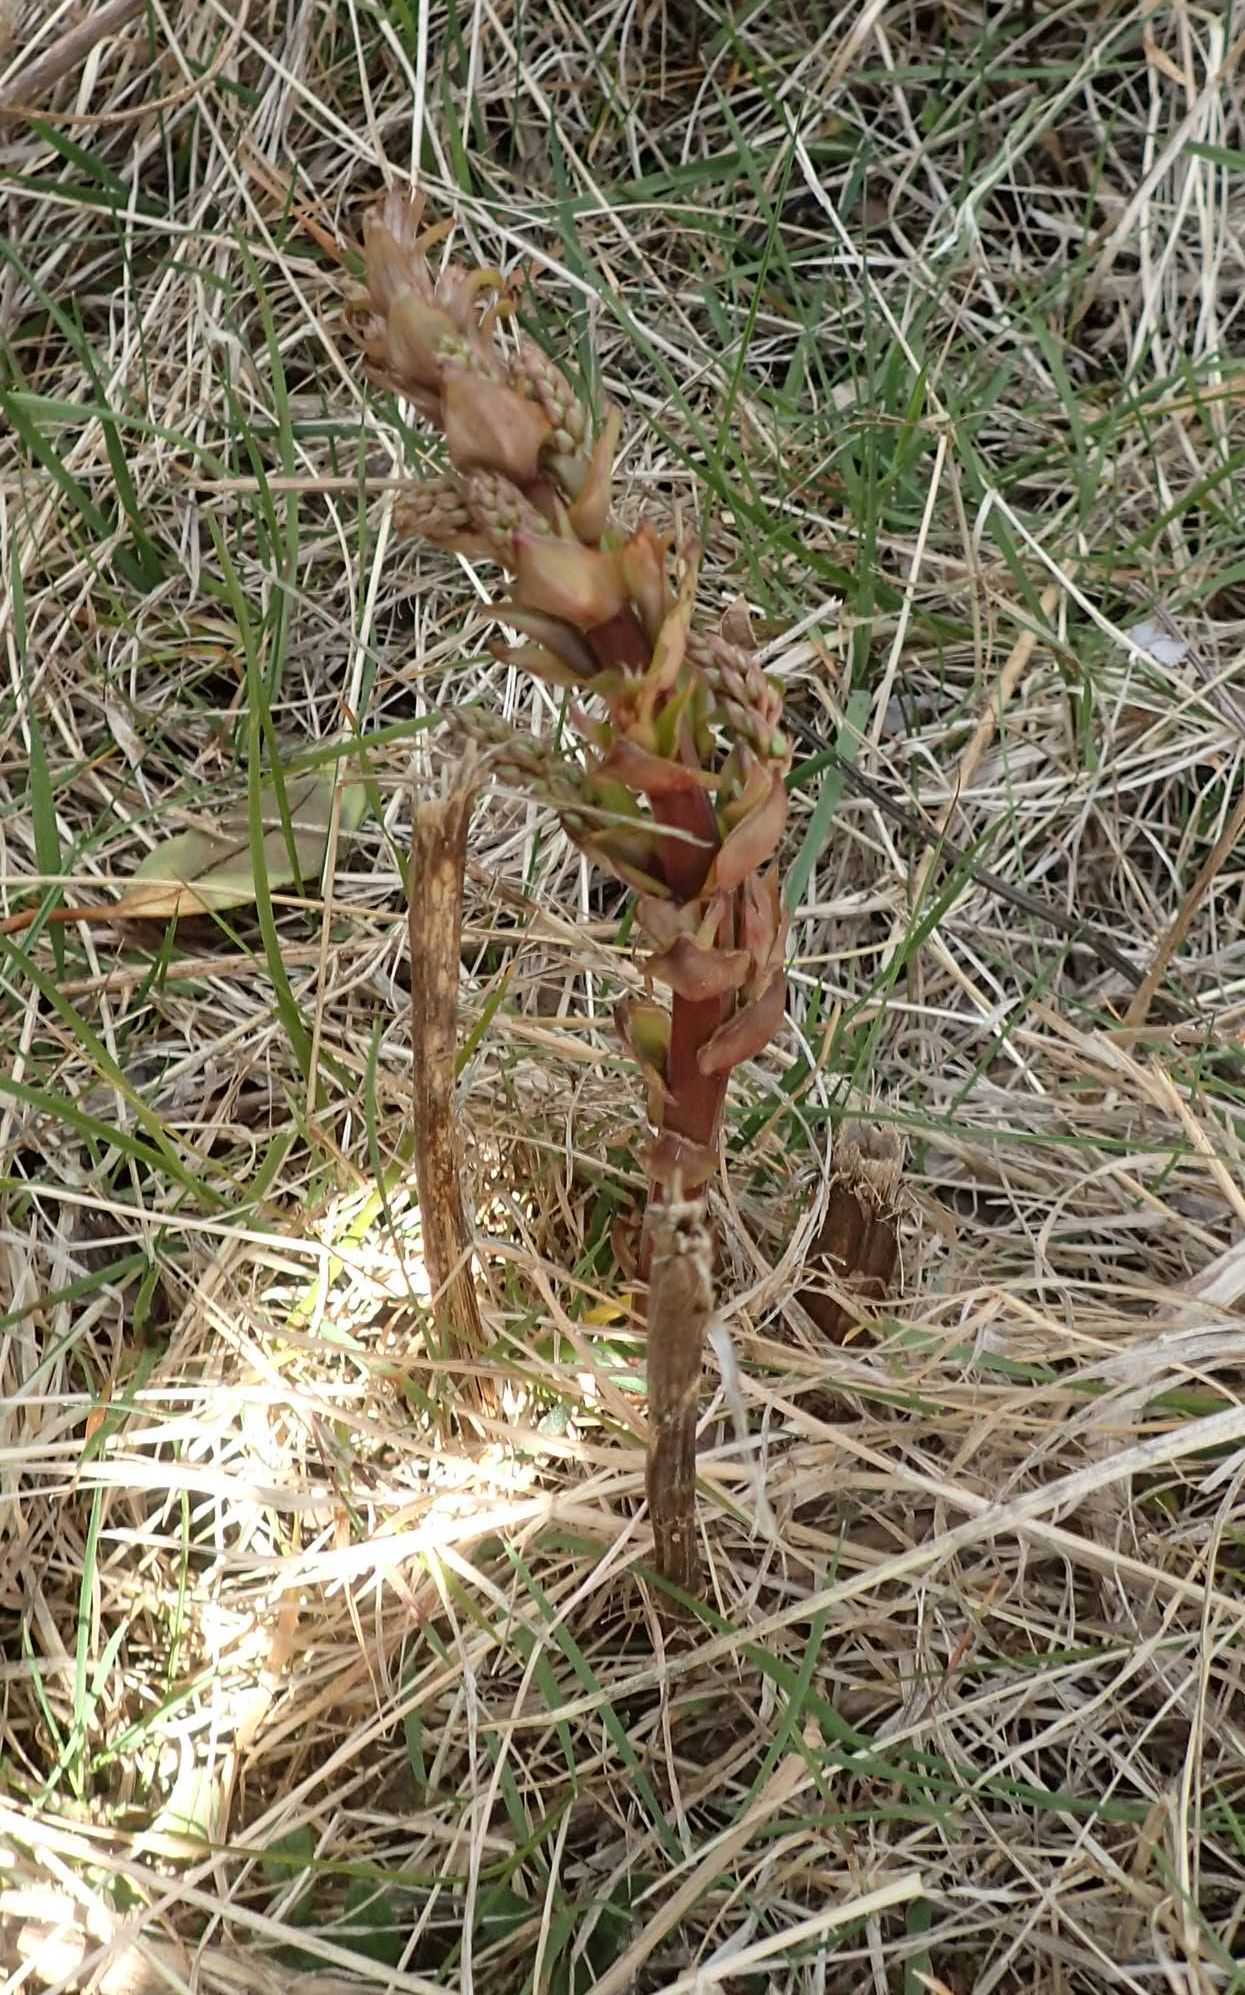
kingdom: Plantae
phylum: Tracheophyta
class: Magnoliopsida
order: Cucurbitales
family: Coriariaceae
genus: Coriaria
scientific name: Coriaria arborea
